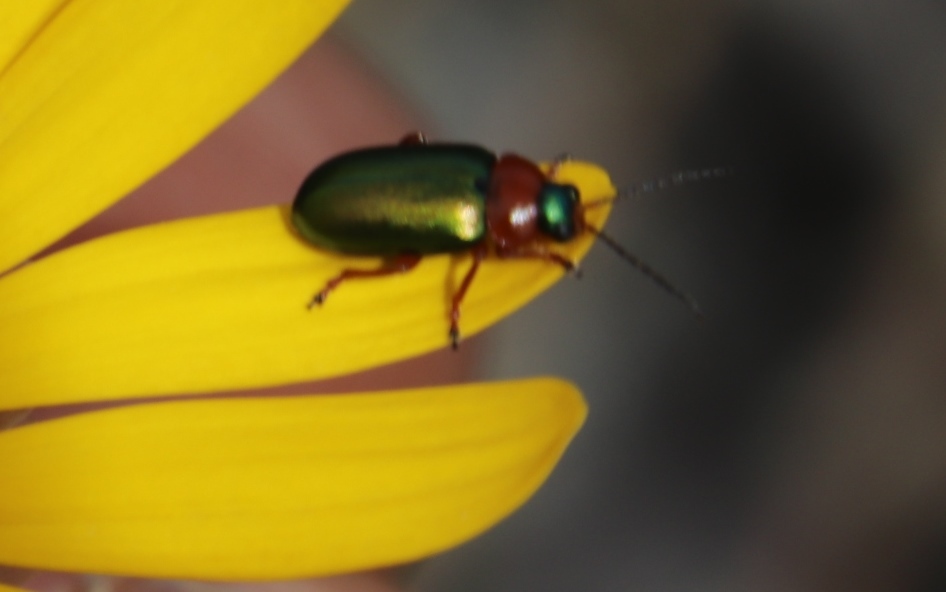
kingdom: Animalia
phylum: Arthropoda
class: Insecta
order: Coleoptera
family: Chrysomelidae
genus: Palaeophylia
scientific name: Palaeophylia
